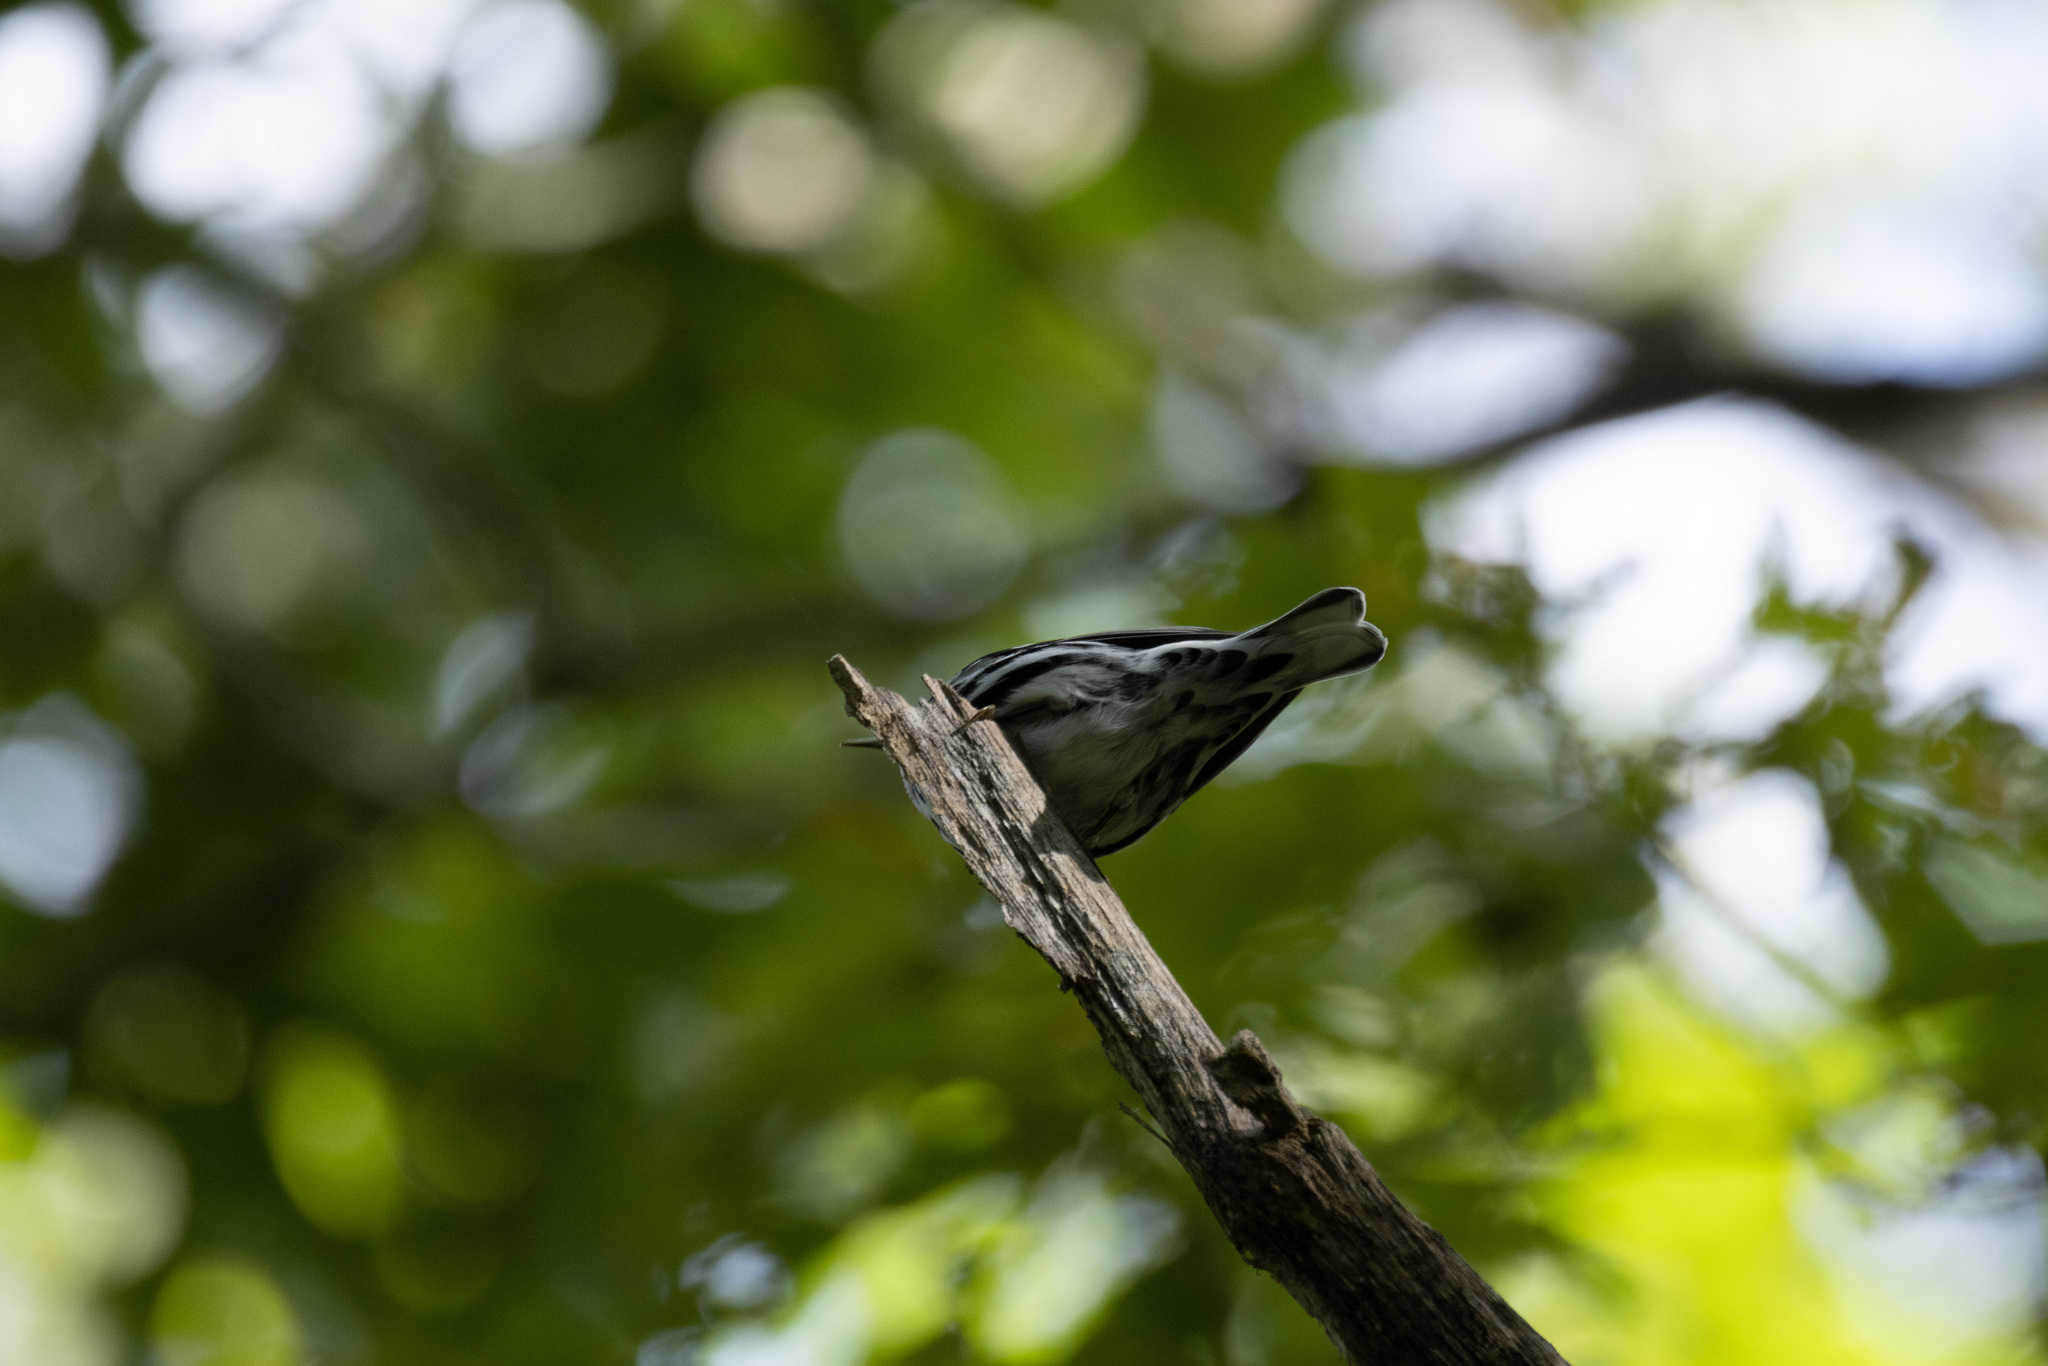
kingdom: Animalia
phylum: Chordata
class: Aves
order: Passeriformes
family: Parulidae
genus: Mniotilta
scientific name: Mniotilta varia
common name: Black-and-white warbler
